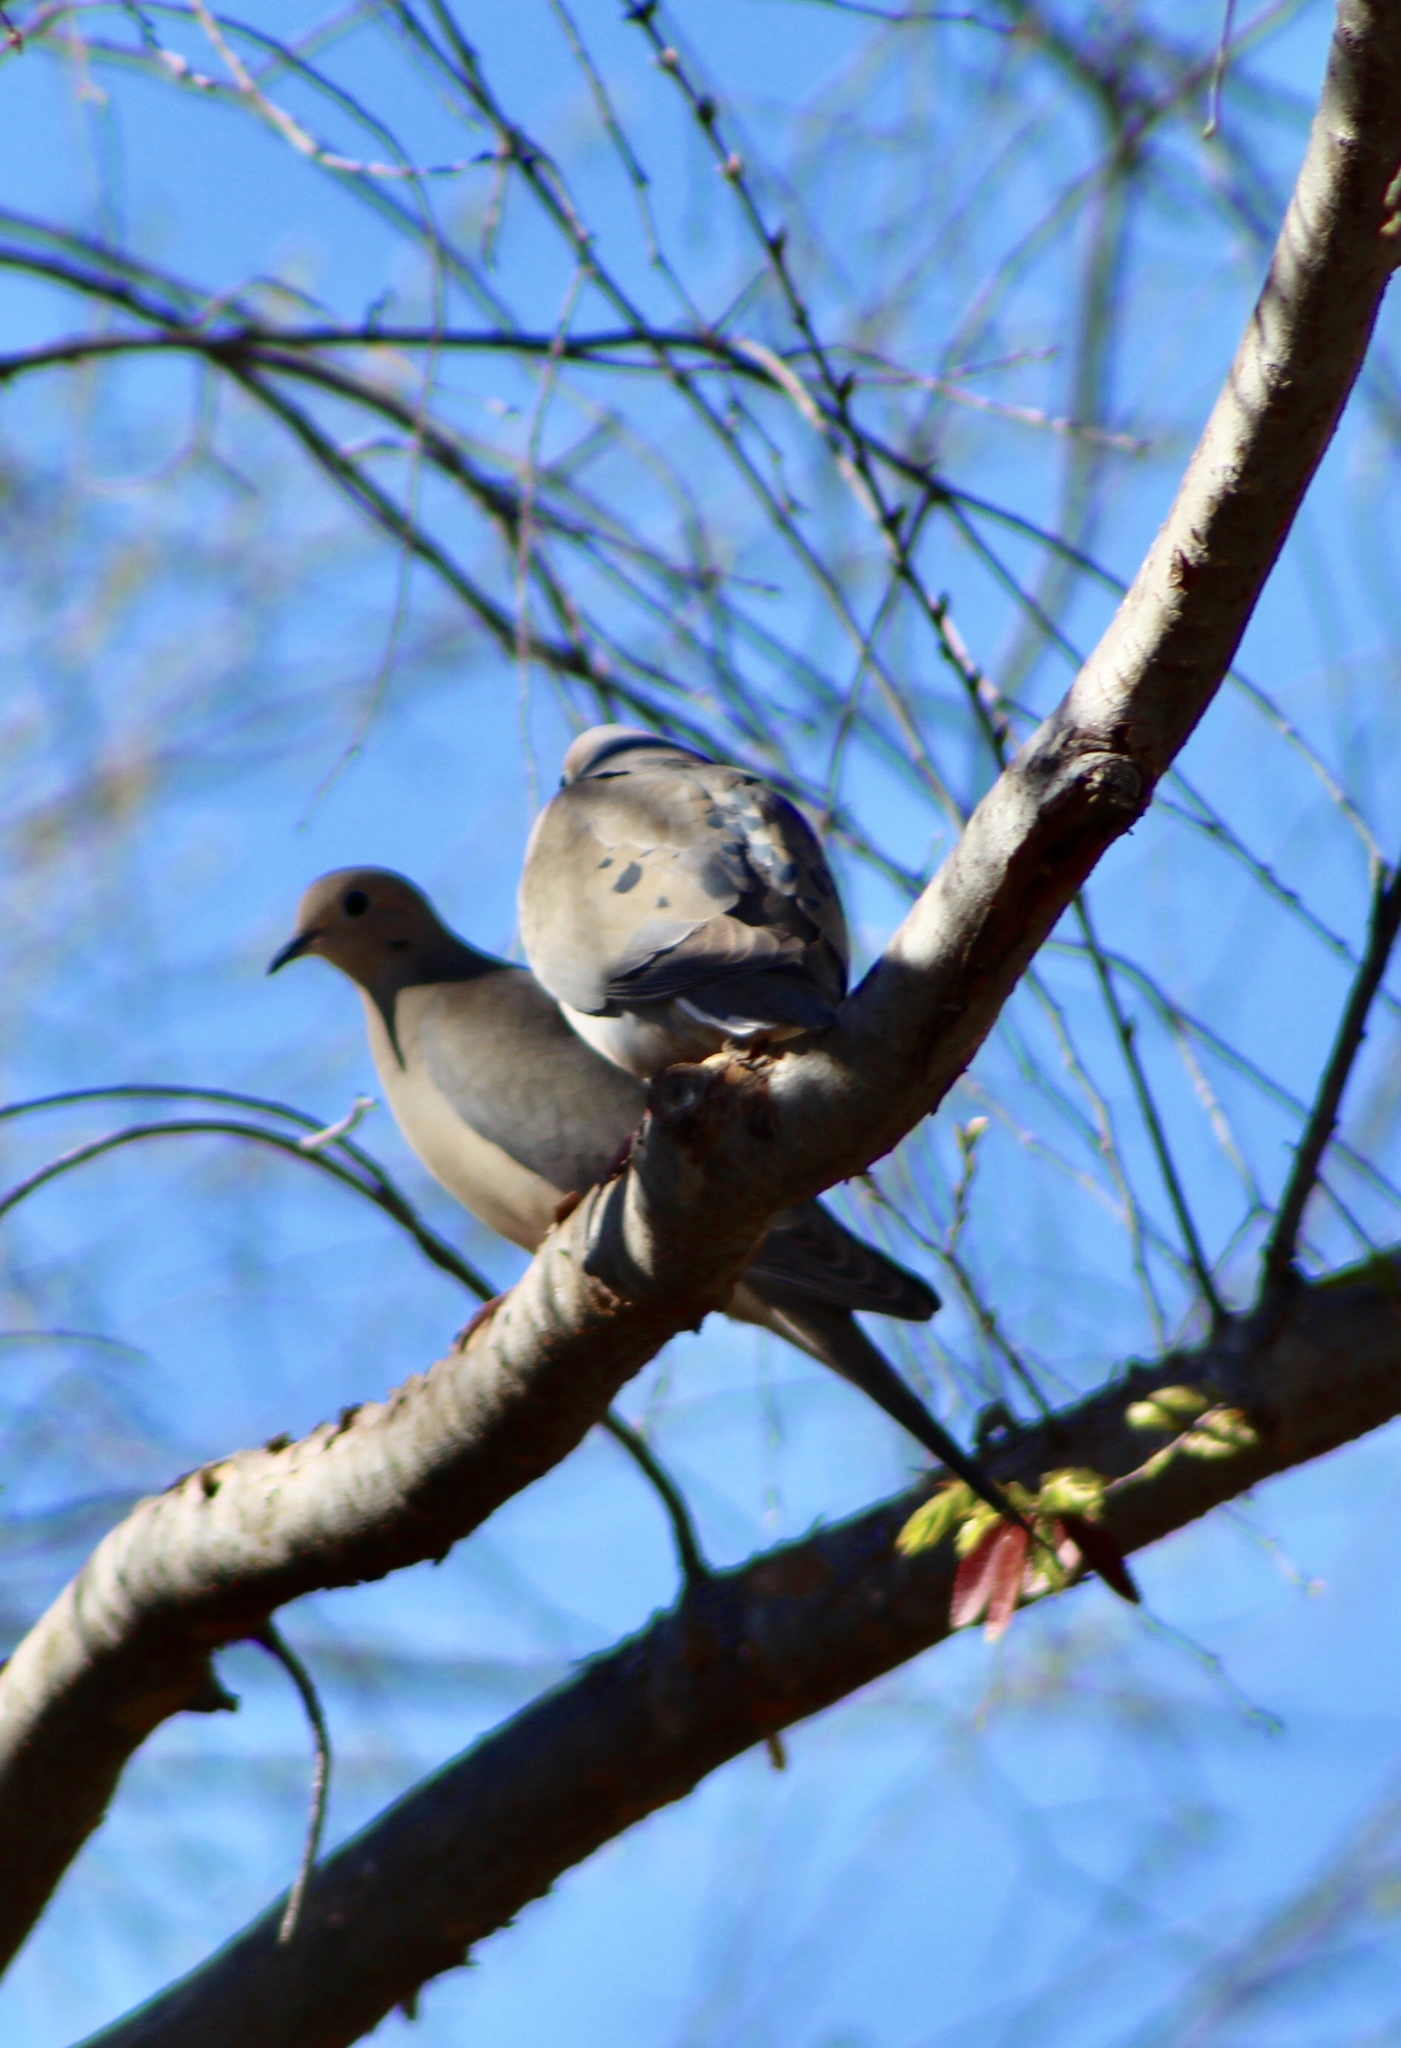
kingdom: Animalia
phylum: Chordata
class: Aves
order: Columbiformes
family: Columbidae
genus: Zenaida
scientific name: Zenaida macroura
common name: Mourning dove
